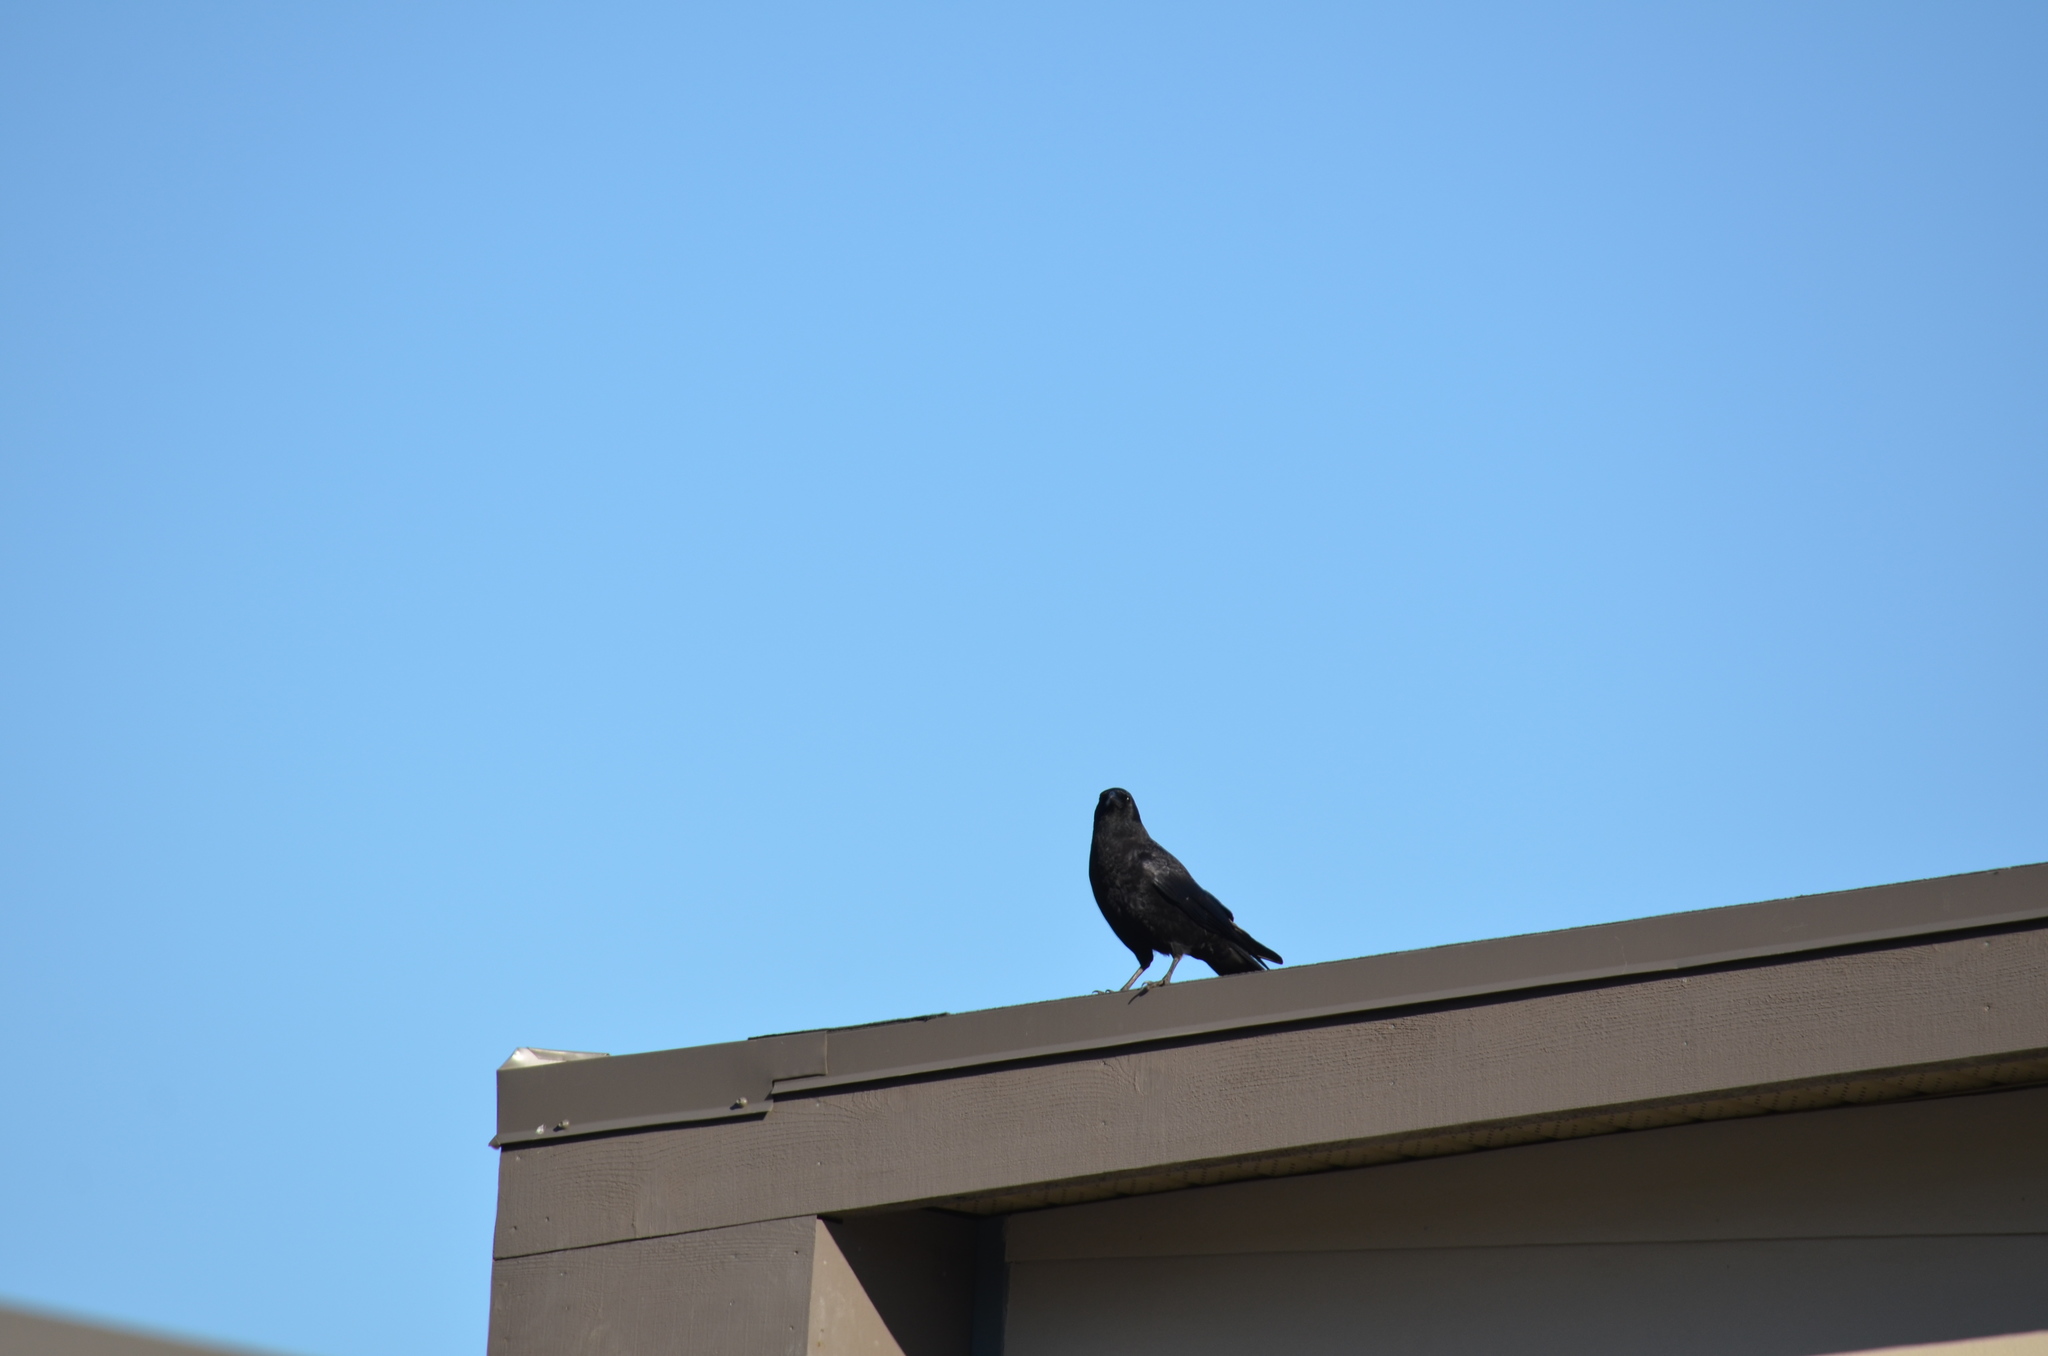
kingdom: Animalia
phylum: Chordata
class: Aves
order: Passeriformes
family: Corvidae
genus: Corvus
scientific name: Corvus brachyrhynchos
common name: American crow
